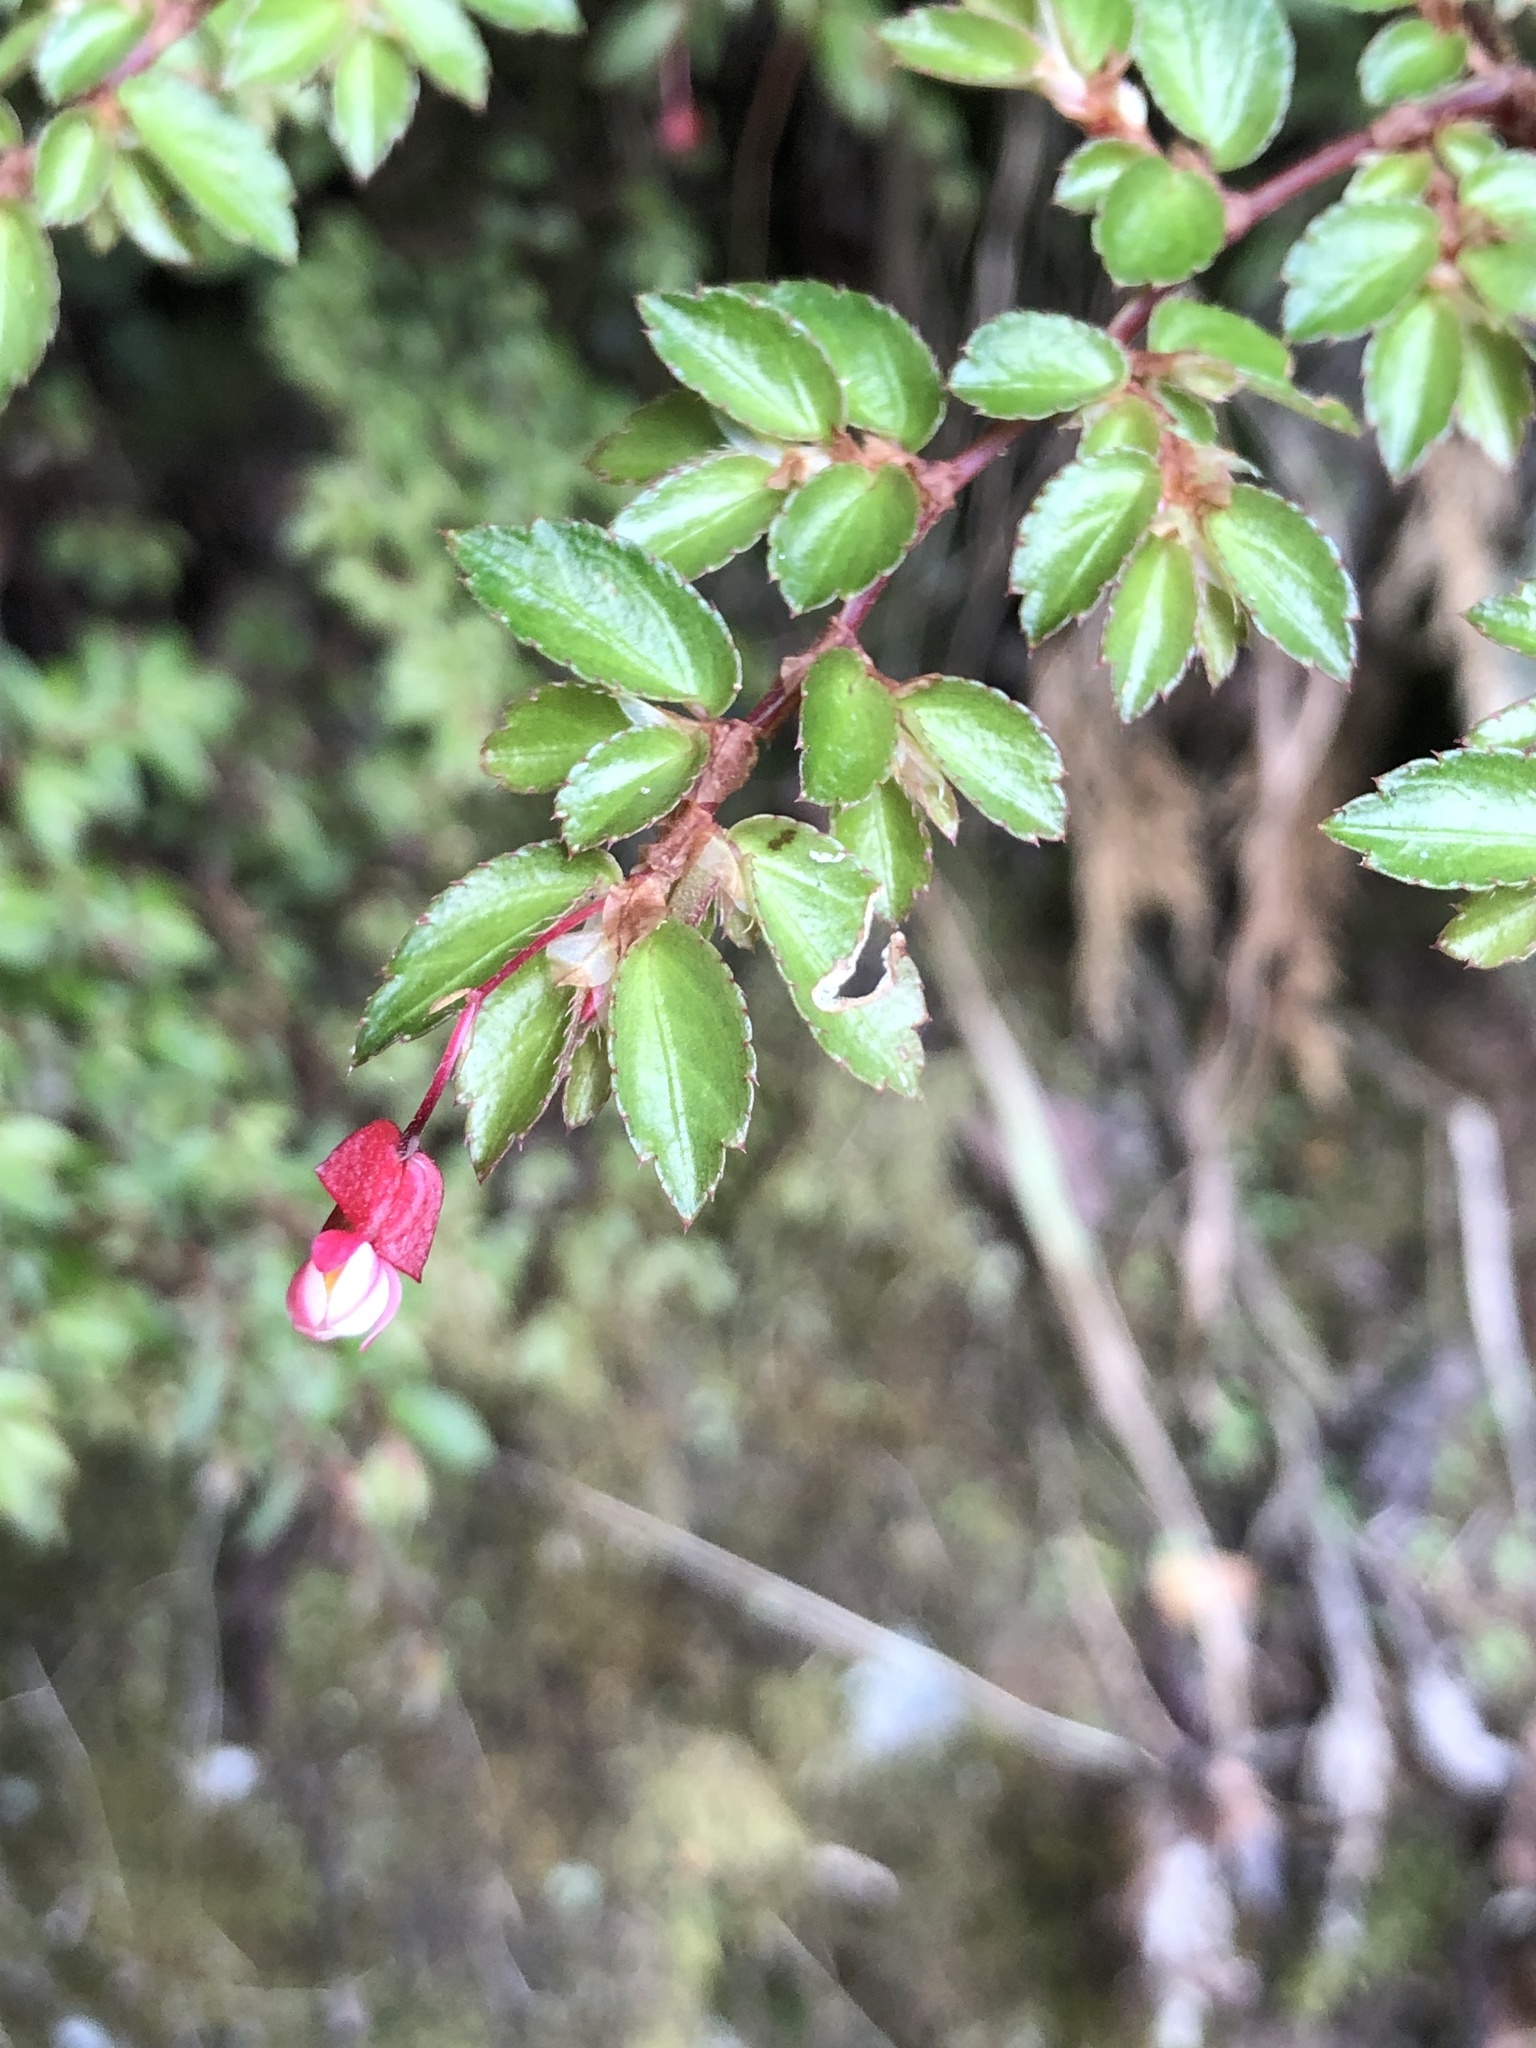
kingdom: Plantae
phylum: Tracheophyta
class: Magnoliopsida
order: Cucurbitales
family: Begoniaceae
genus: Begonia
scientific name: Begonia foliosa
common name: Fern begonia
